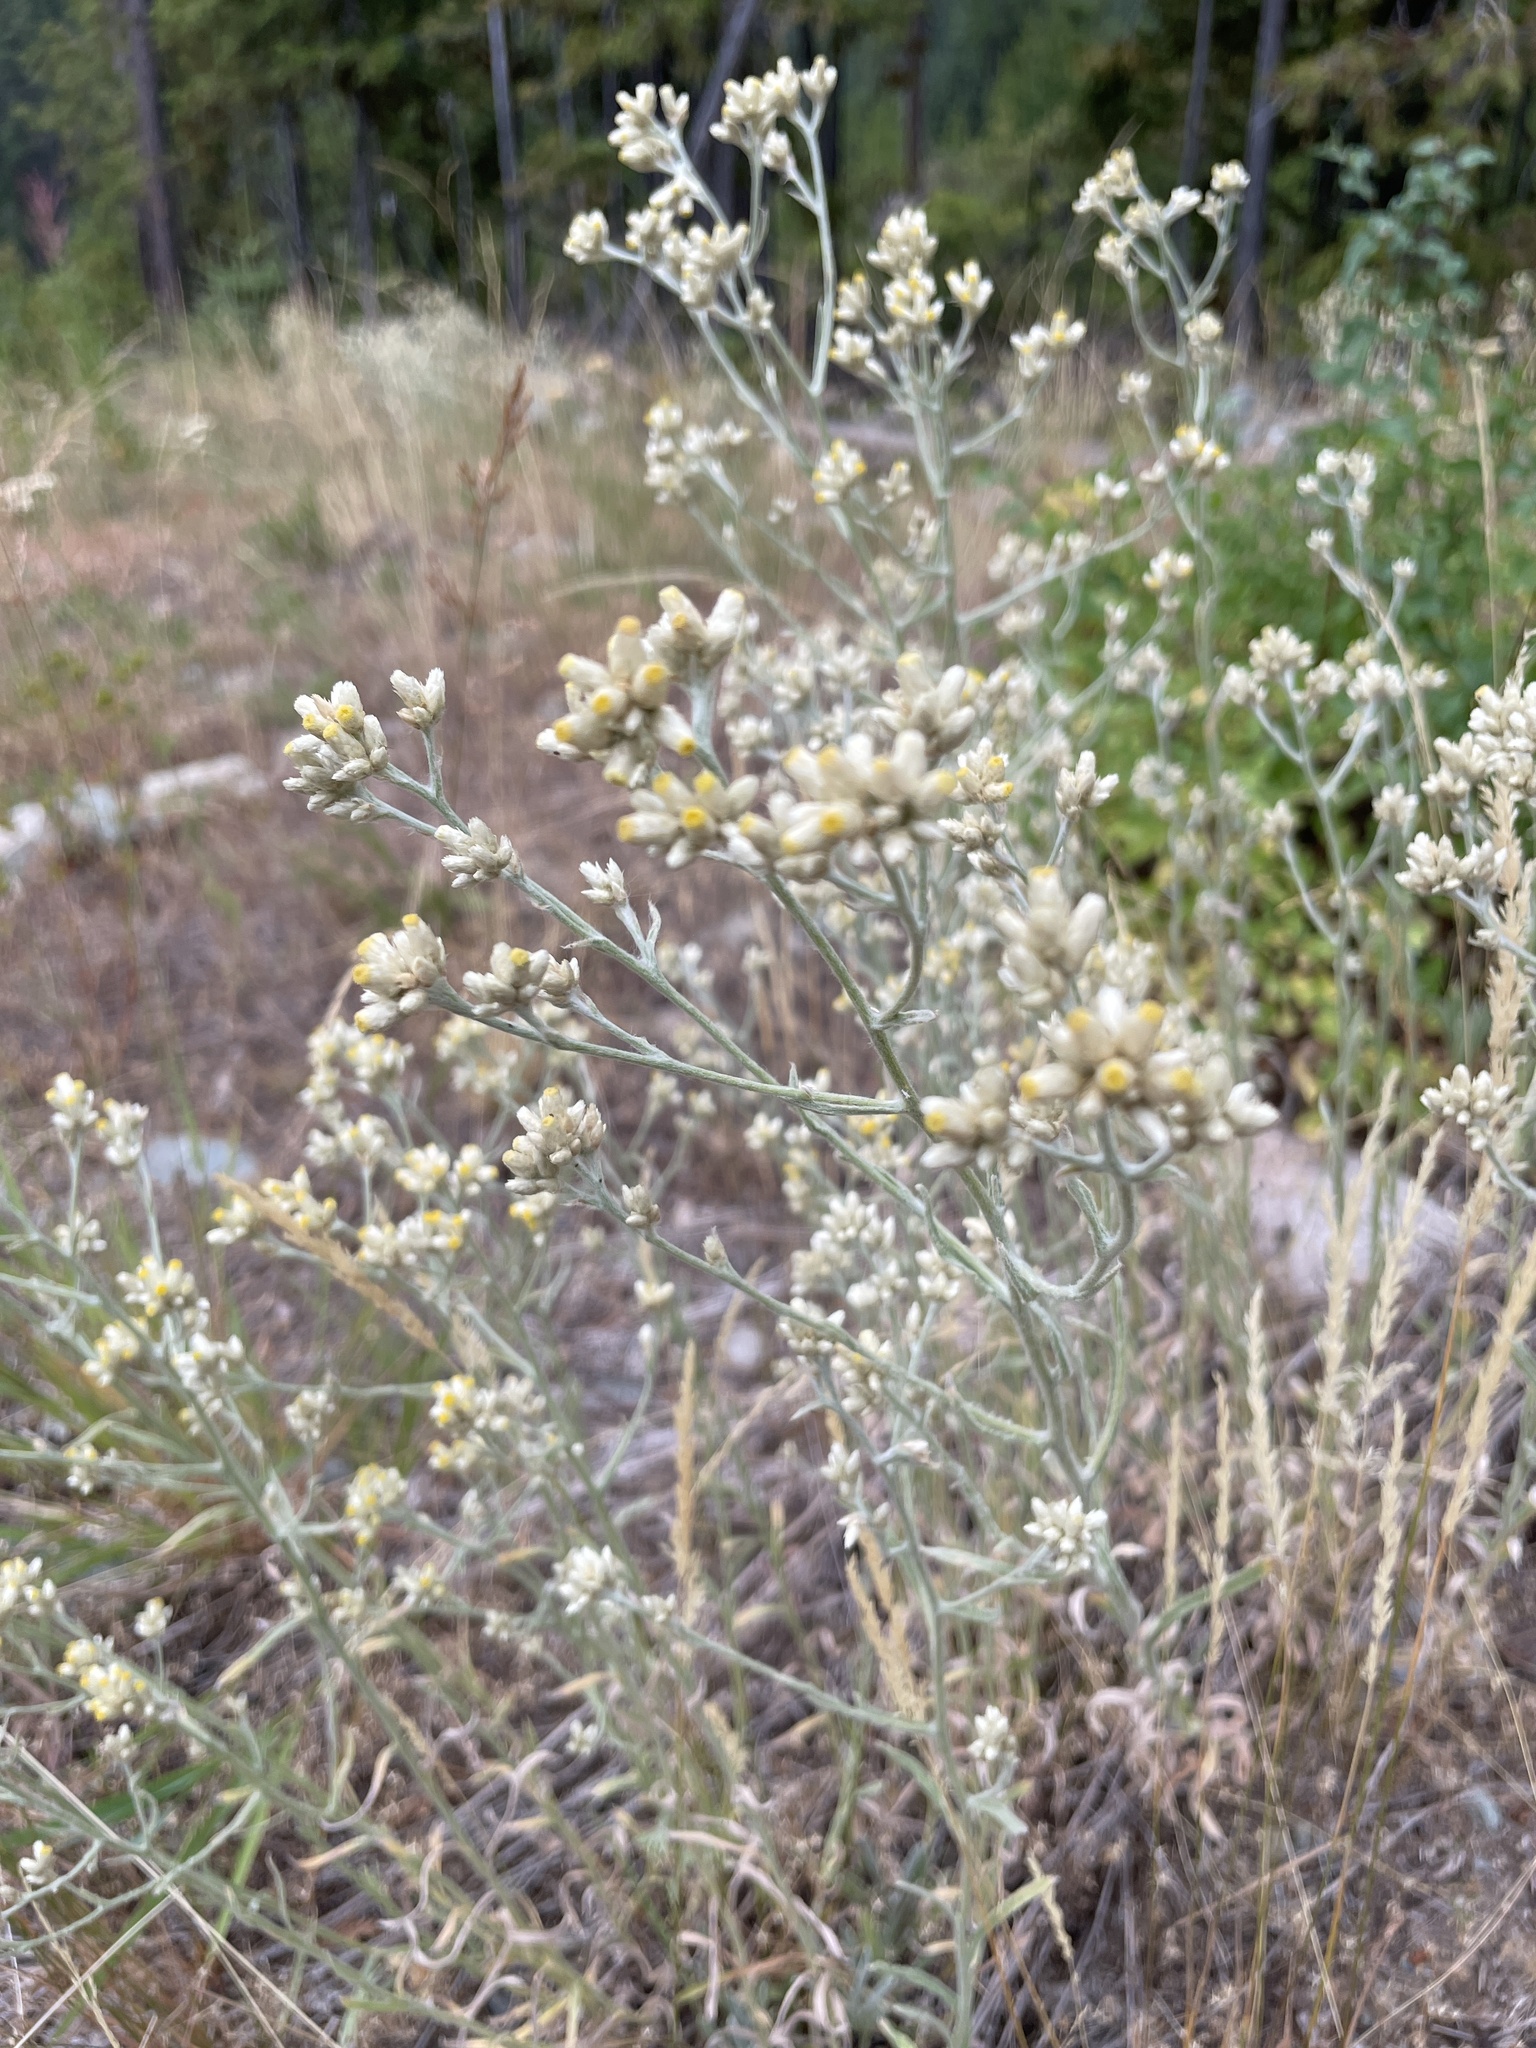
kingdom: Plantae
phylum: Tracheophyta
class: Magnoliopsida
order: Asterales
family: Asteraceae
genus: Pseudognaphalium
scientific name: Pseudognaphalium macounii
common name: Clammy cudweed
